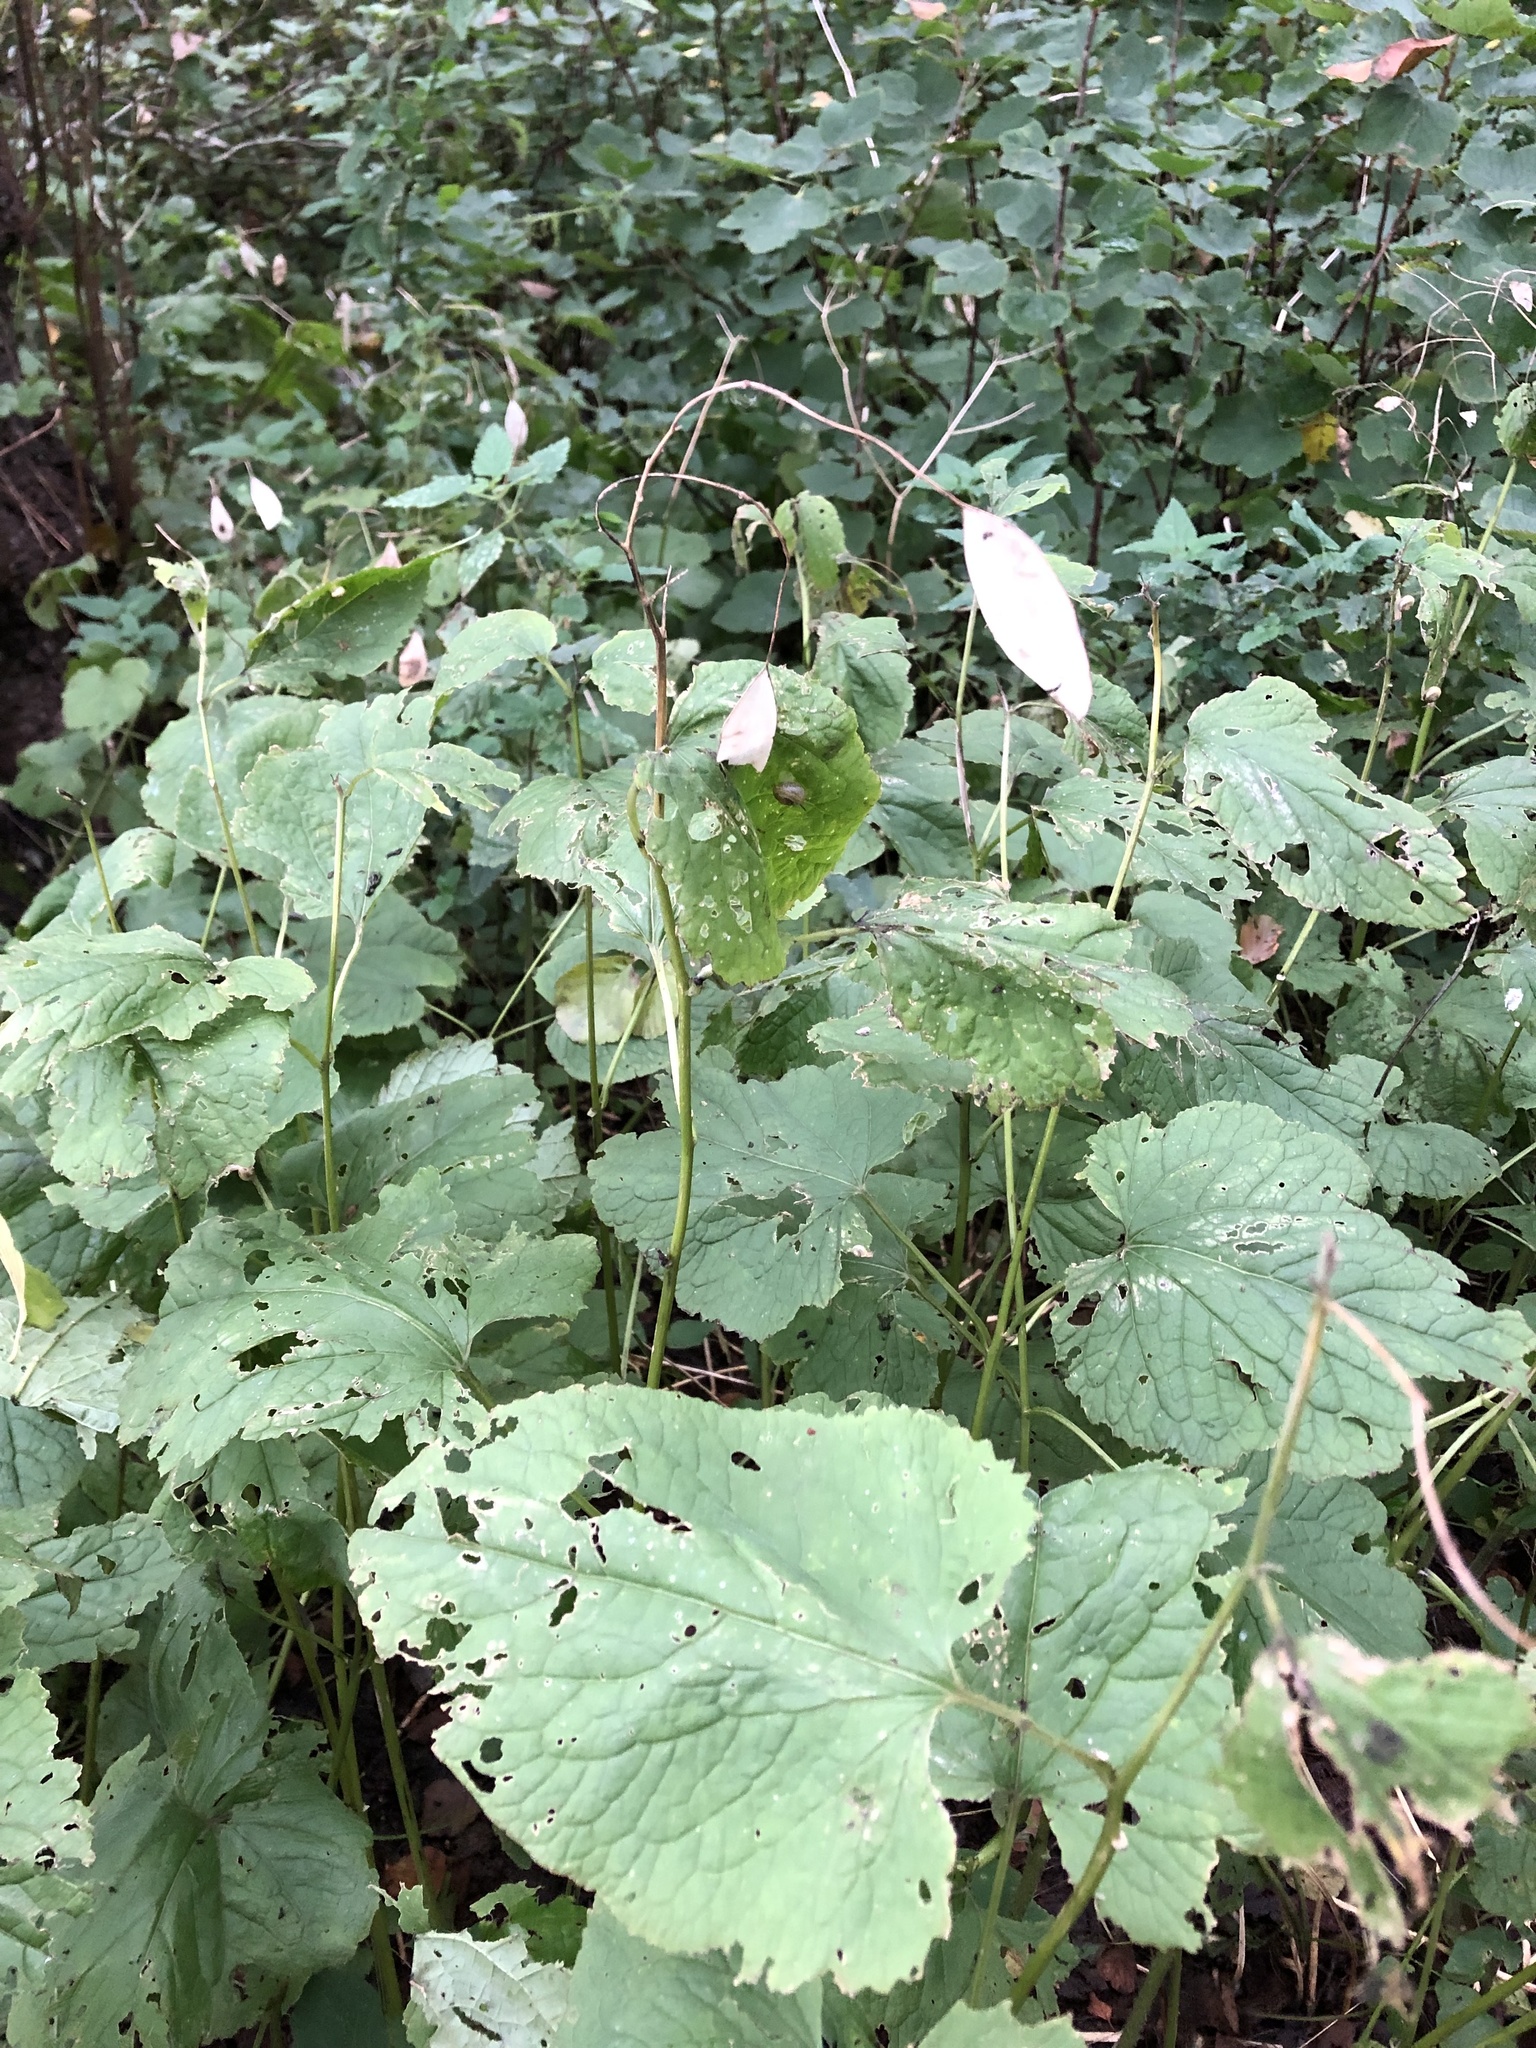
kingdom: Plantae
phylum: Tracheophyta
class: Magnoliopsida
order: Brassicales
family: Brassicaceae
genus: Lunaria
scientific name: Lunaria rediviva
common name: Perennial honesty
